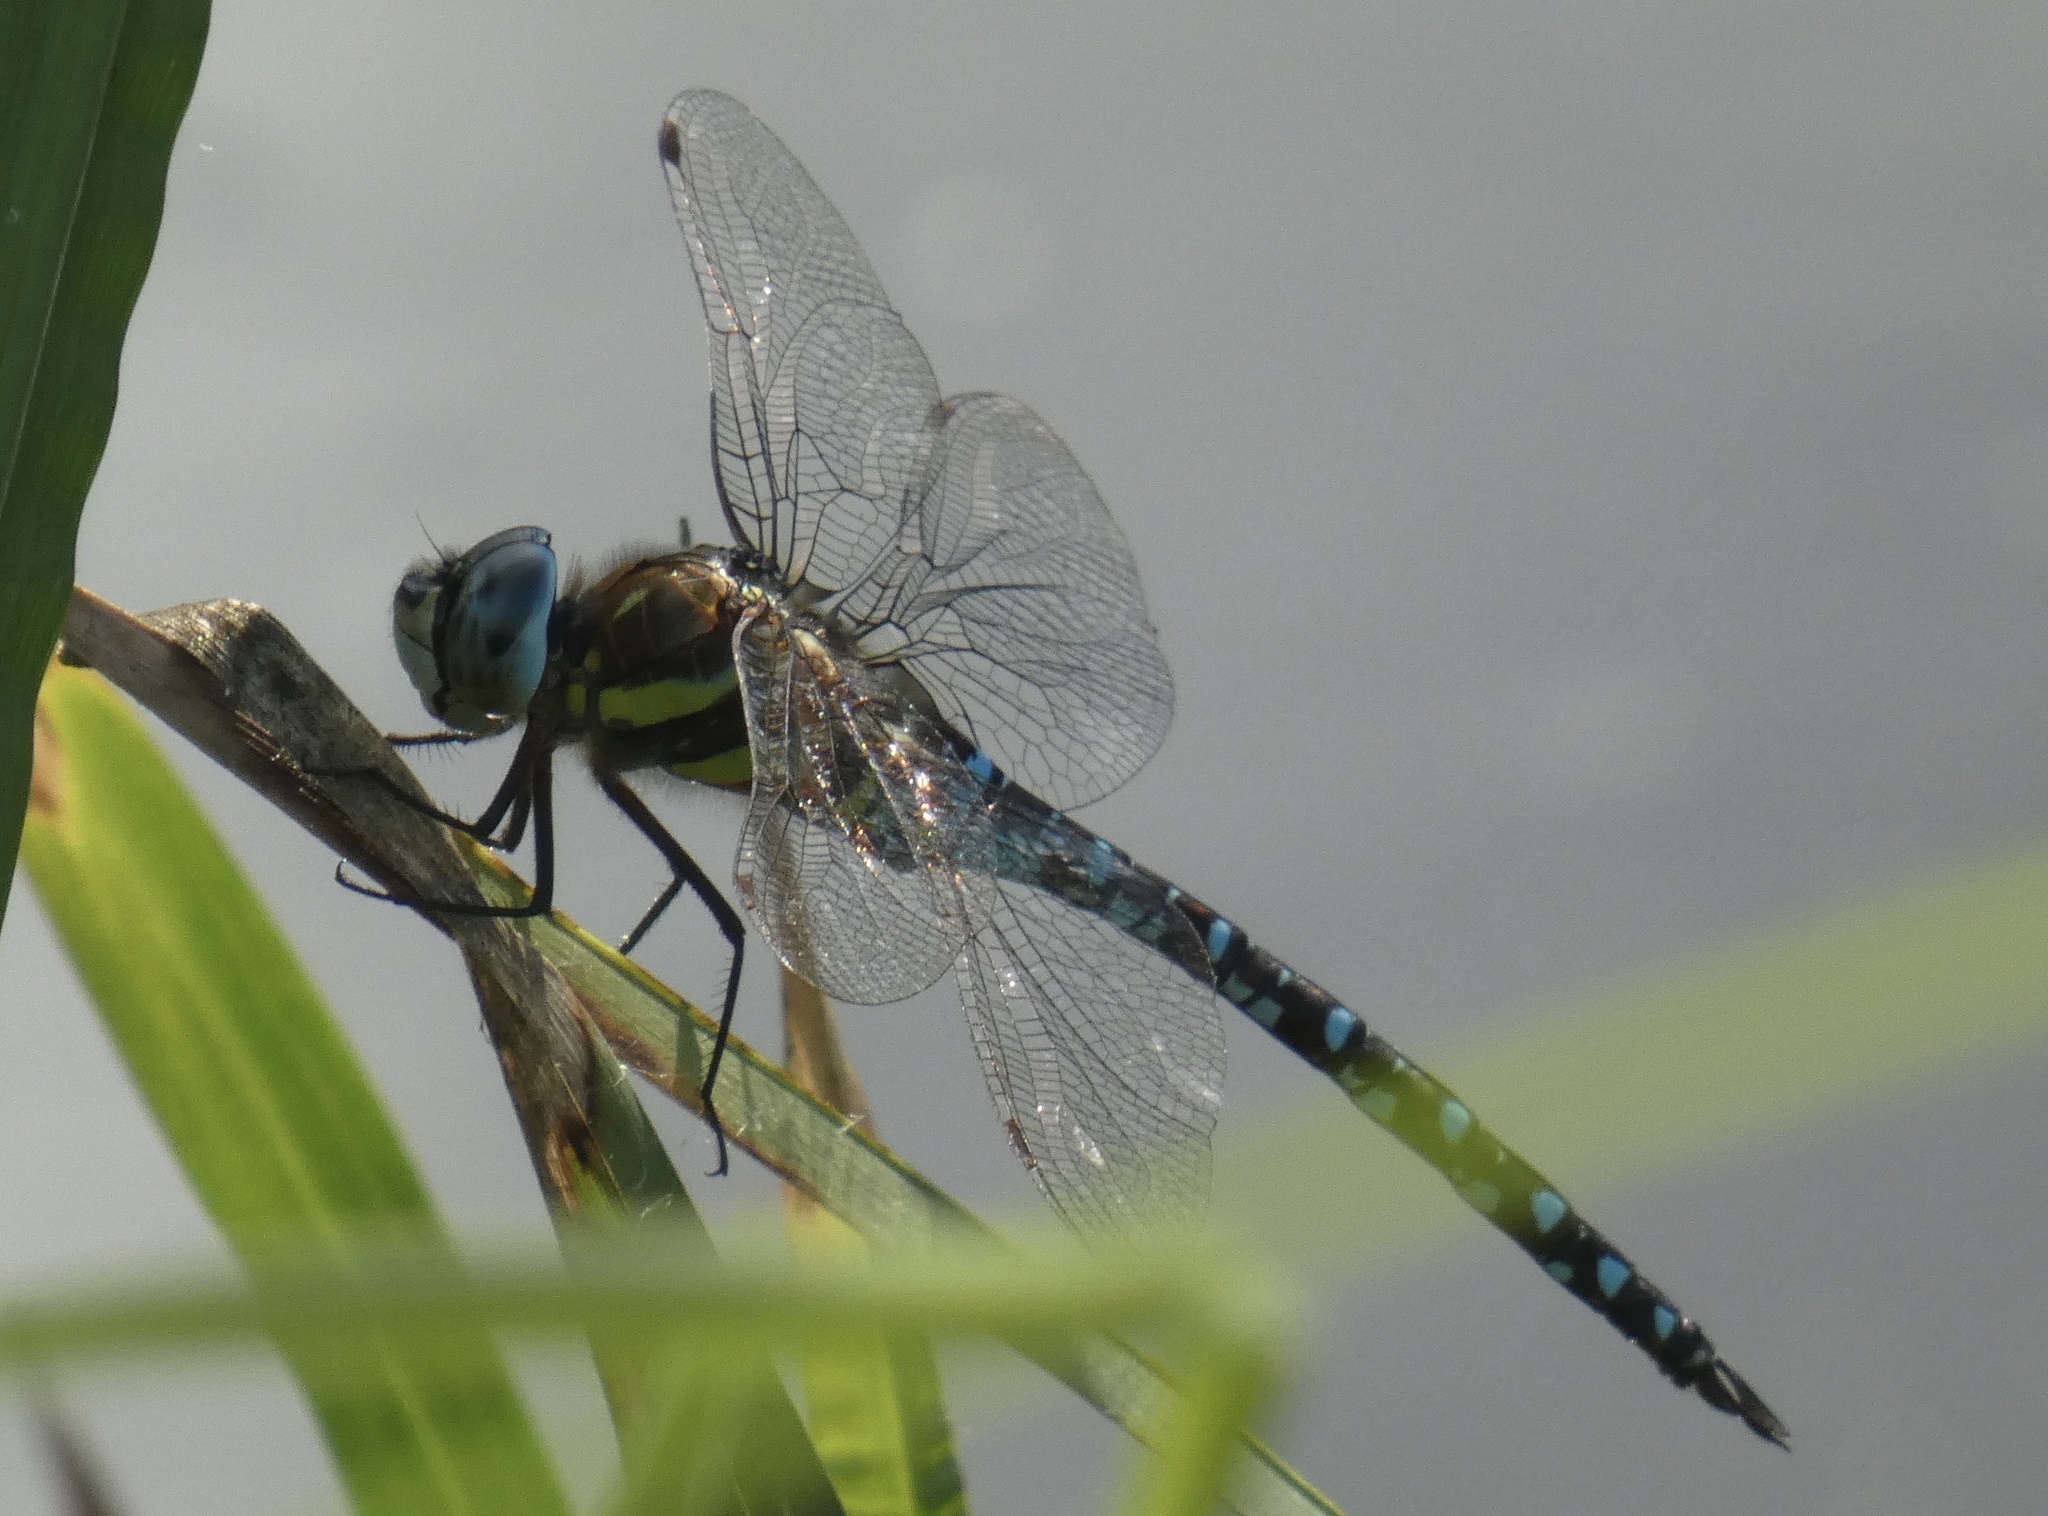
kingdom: Animalia
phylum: Arthropoda
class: Insecta
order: Odonata
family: Aeshnidae
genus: Aeshna
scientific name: Aeshna mixta
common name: Migrant hawker
